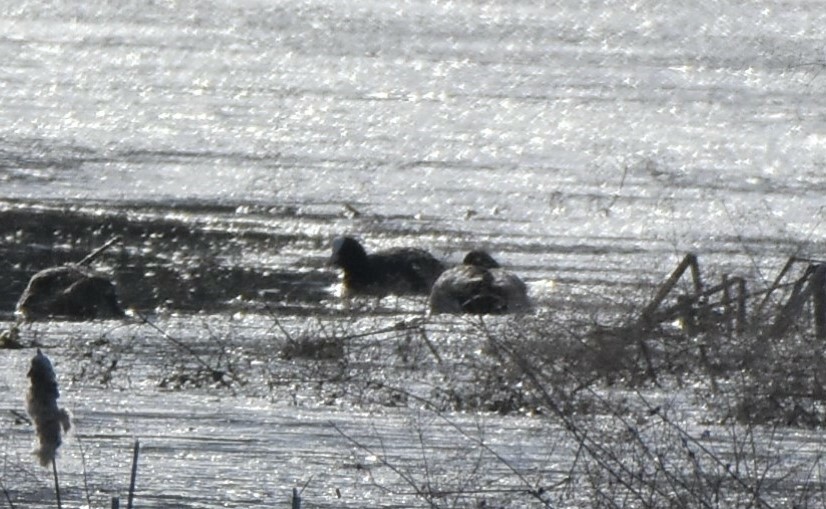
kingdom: Animalia
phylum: Chordata
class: Aves
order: Gruiformes
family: Rallidae
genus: Fulica
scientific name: Fulica atra
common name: Eurasian coot
